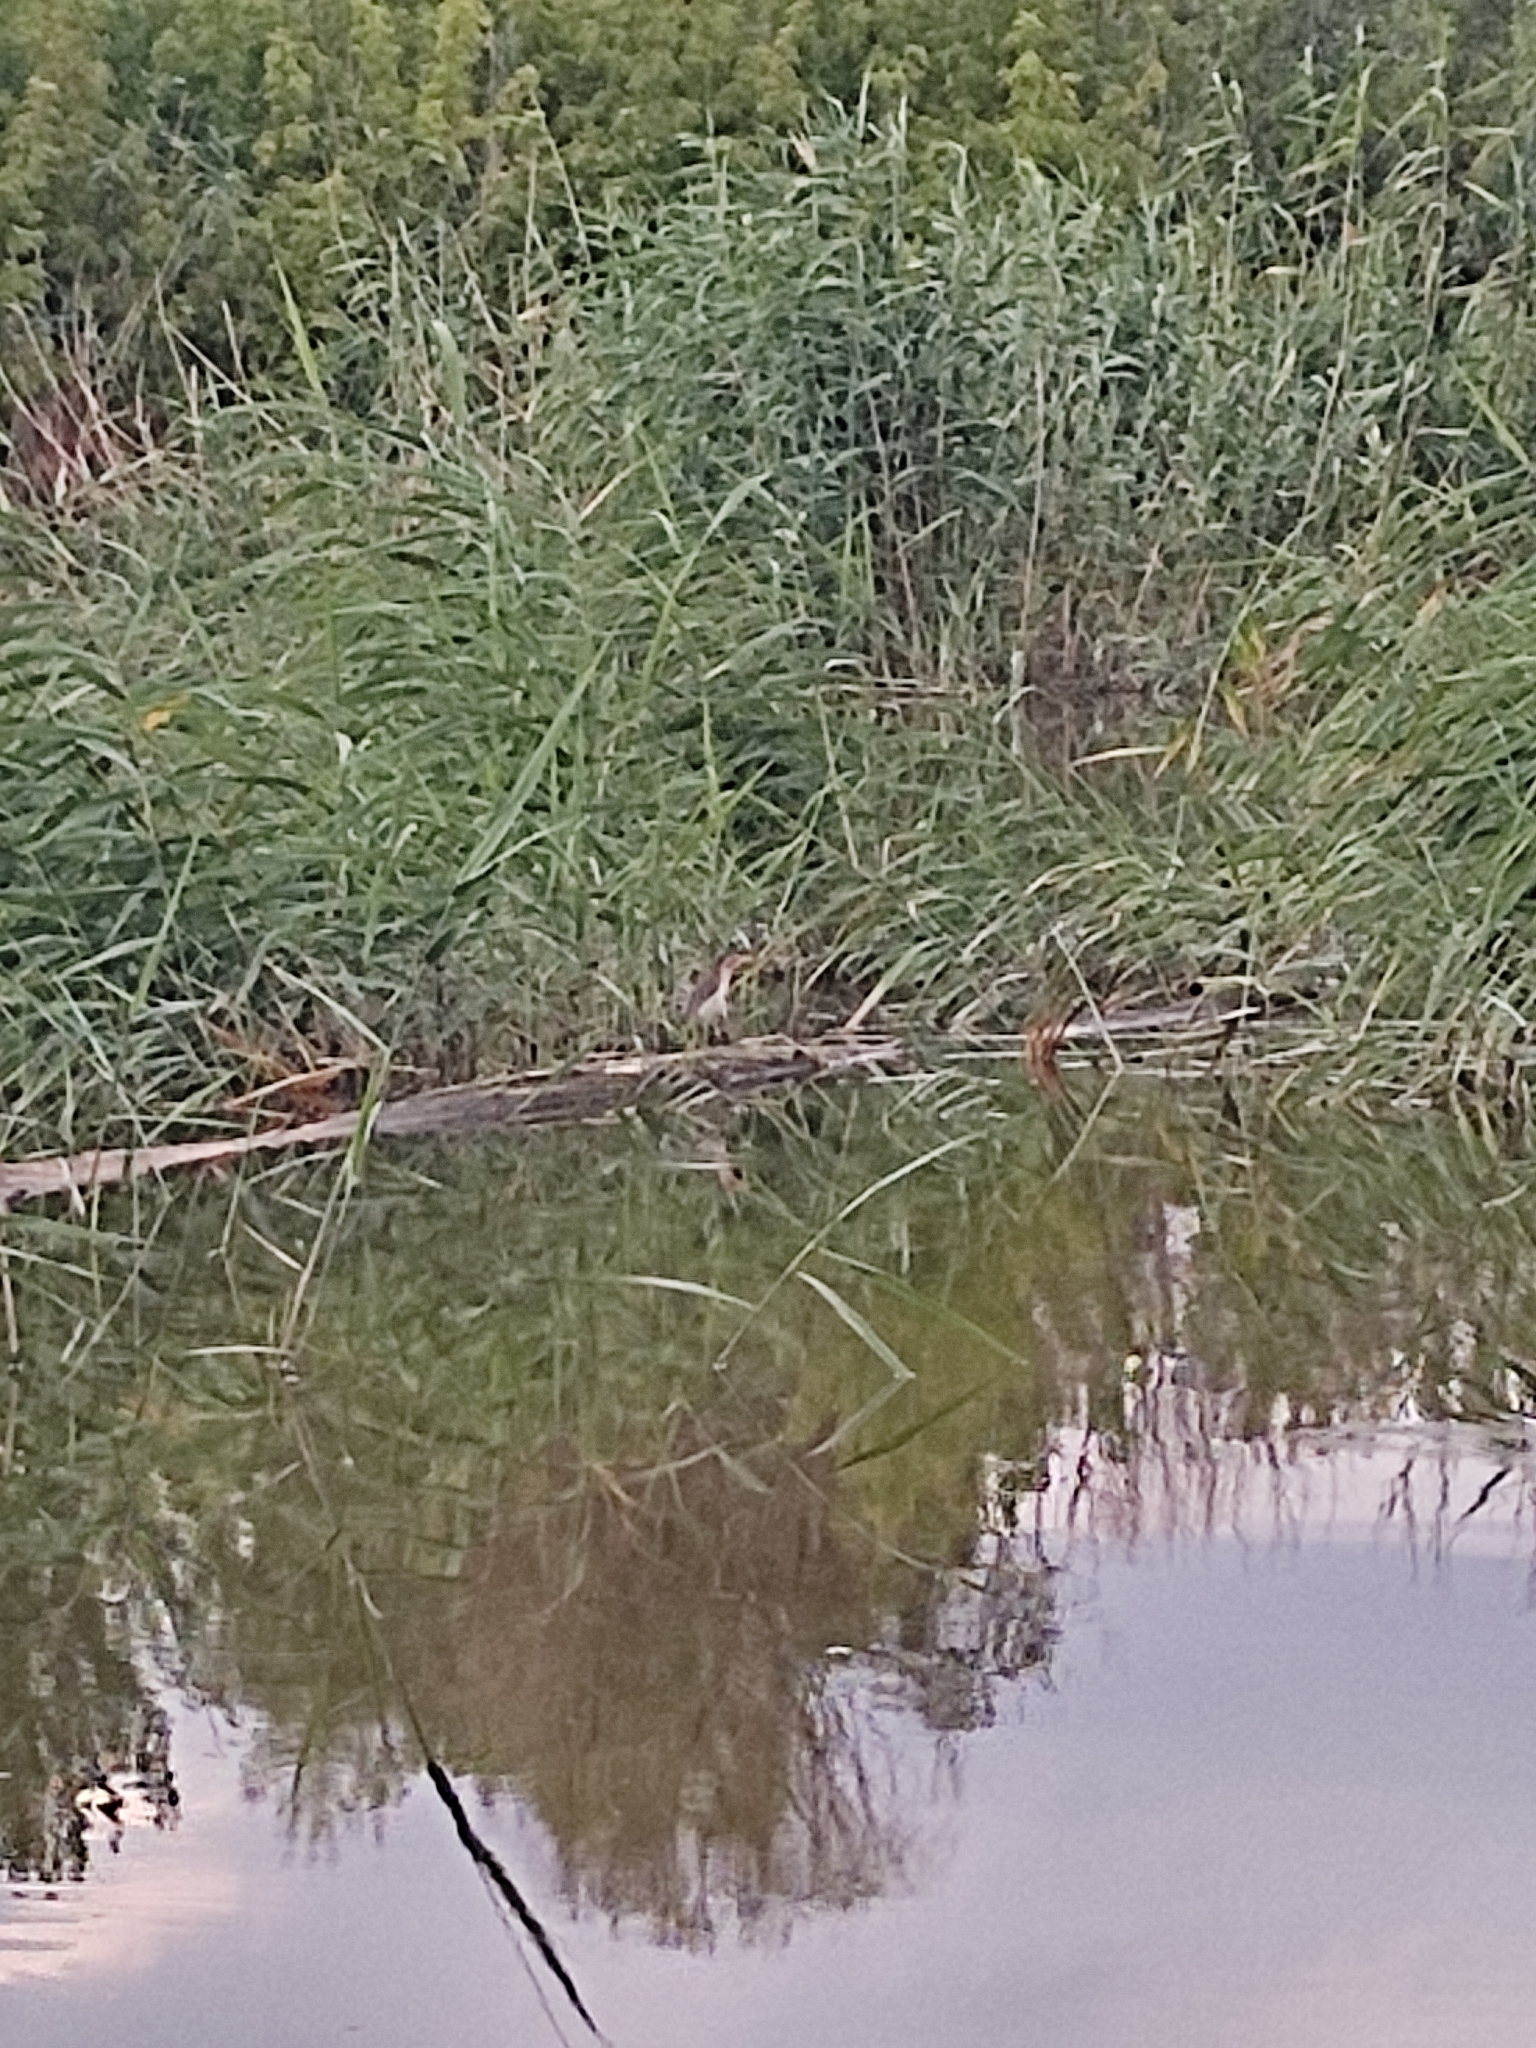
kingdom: Animalia
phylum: Chordata
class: Aves
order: Pelecaniformes
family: Ardeidae
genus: Ixobrychus
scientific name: Ixobrychus minutus
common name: Little bittern
